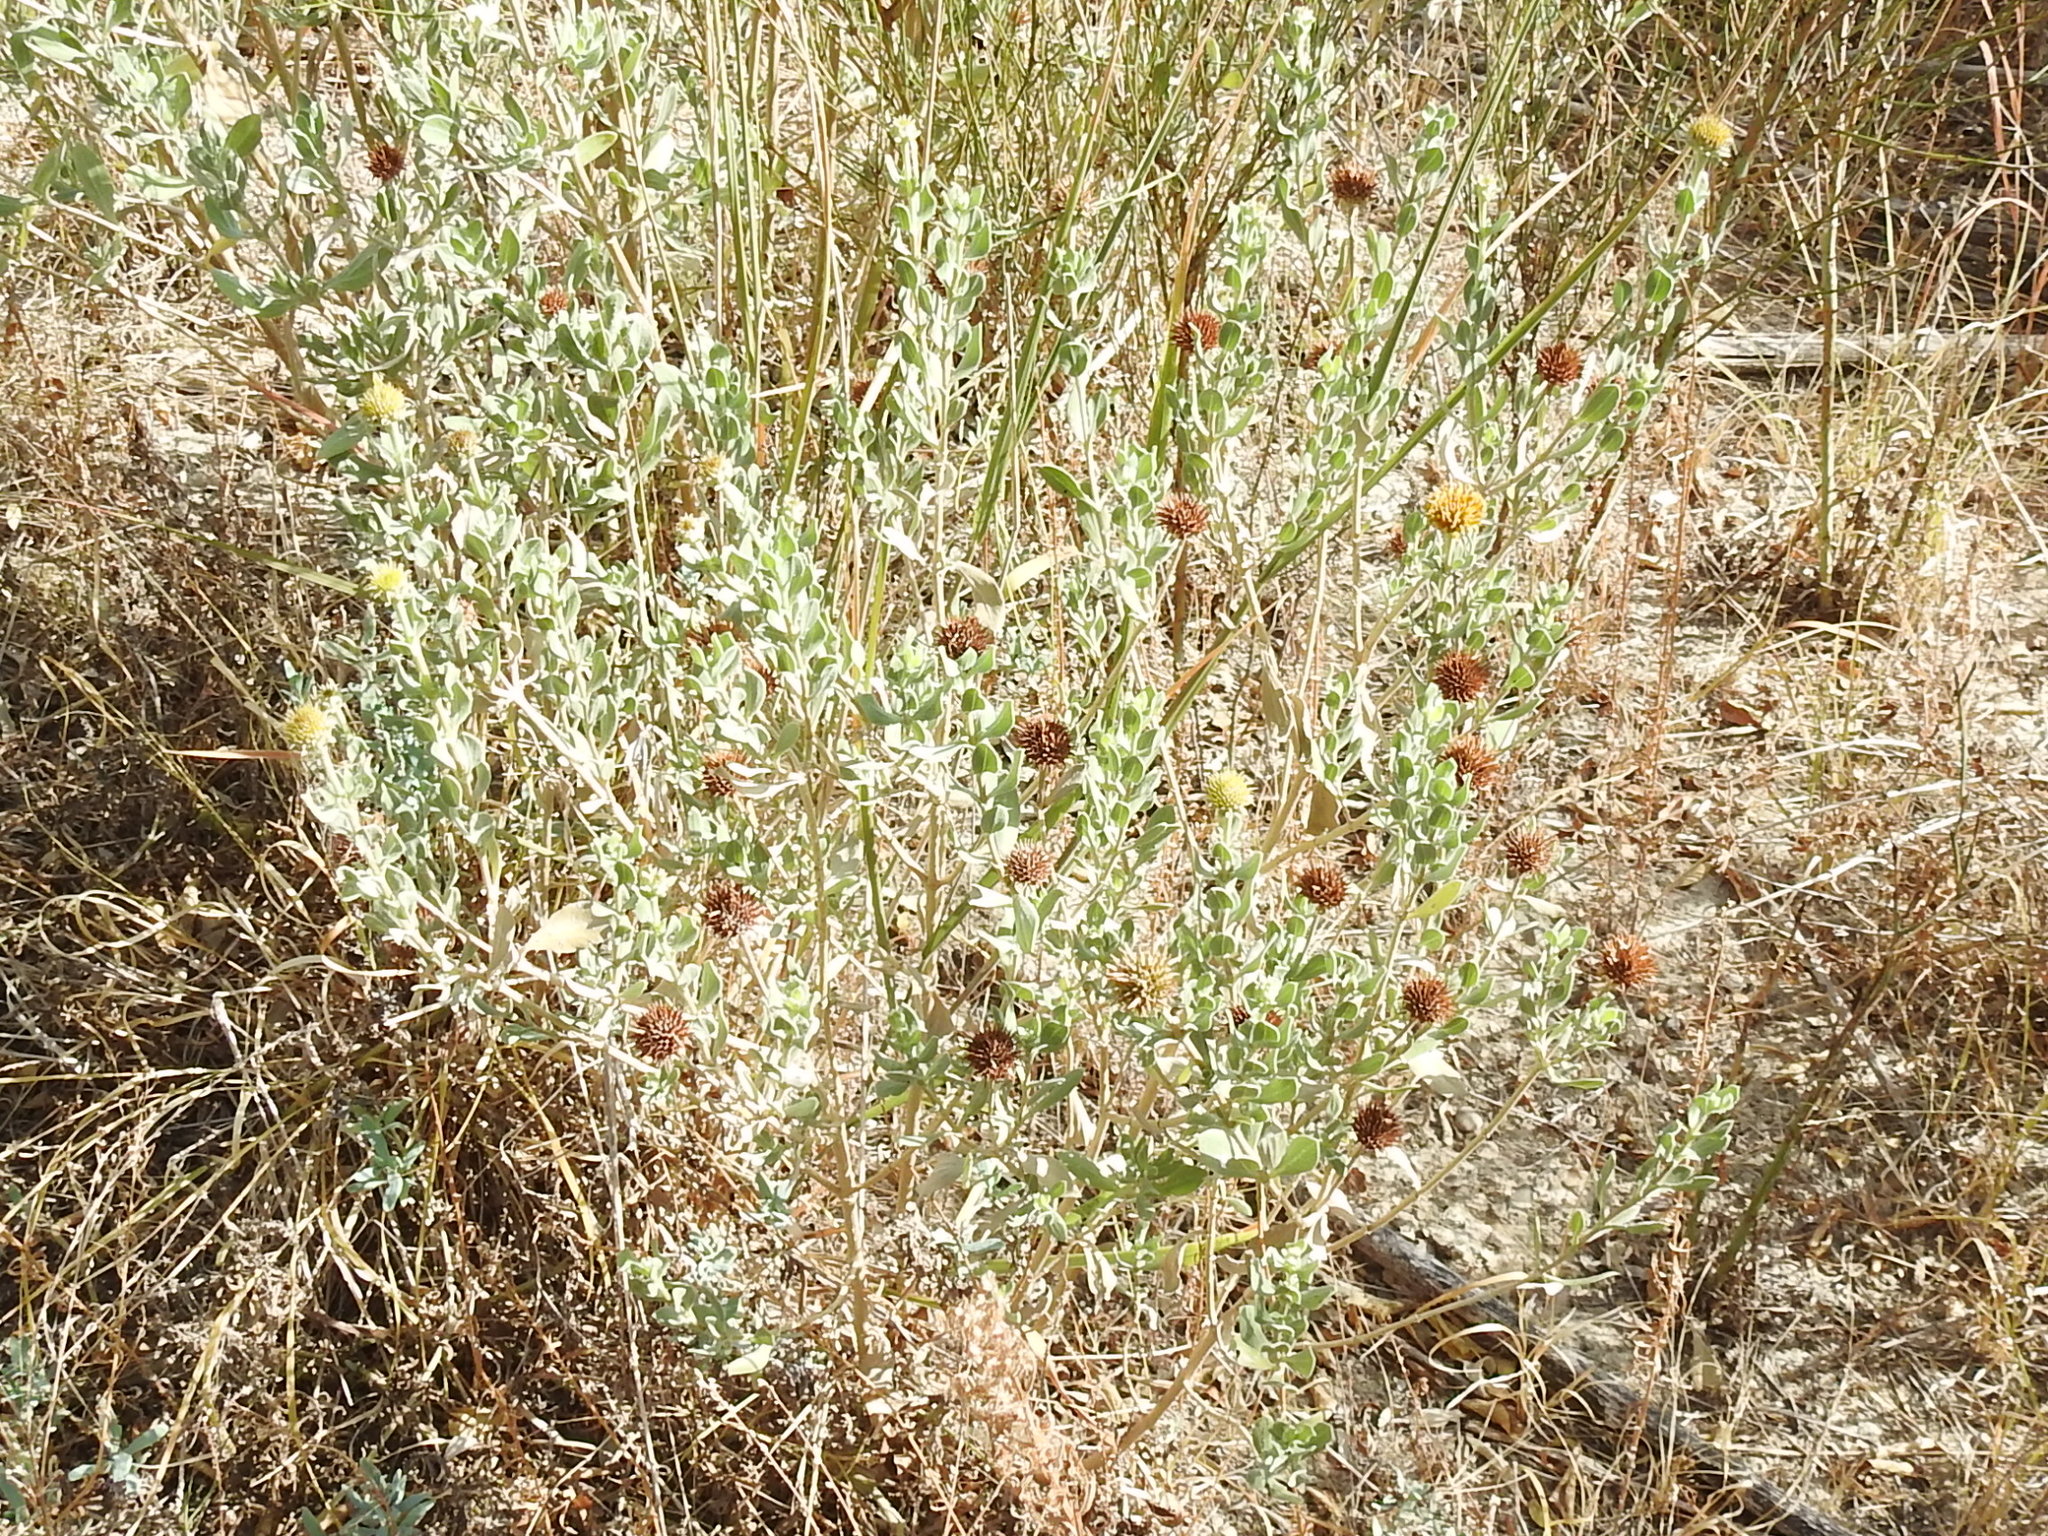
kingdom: Plantae
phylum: Tracheophyta
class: Magnoliopsida
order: Asterales
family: Asteraceae
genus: Borrichia
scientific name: Borrichia frutescens
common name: Sea oxeye
